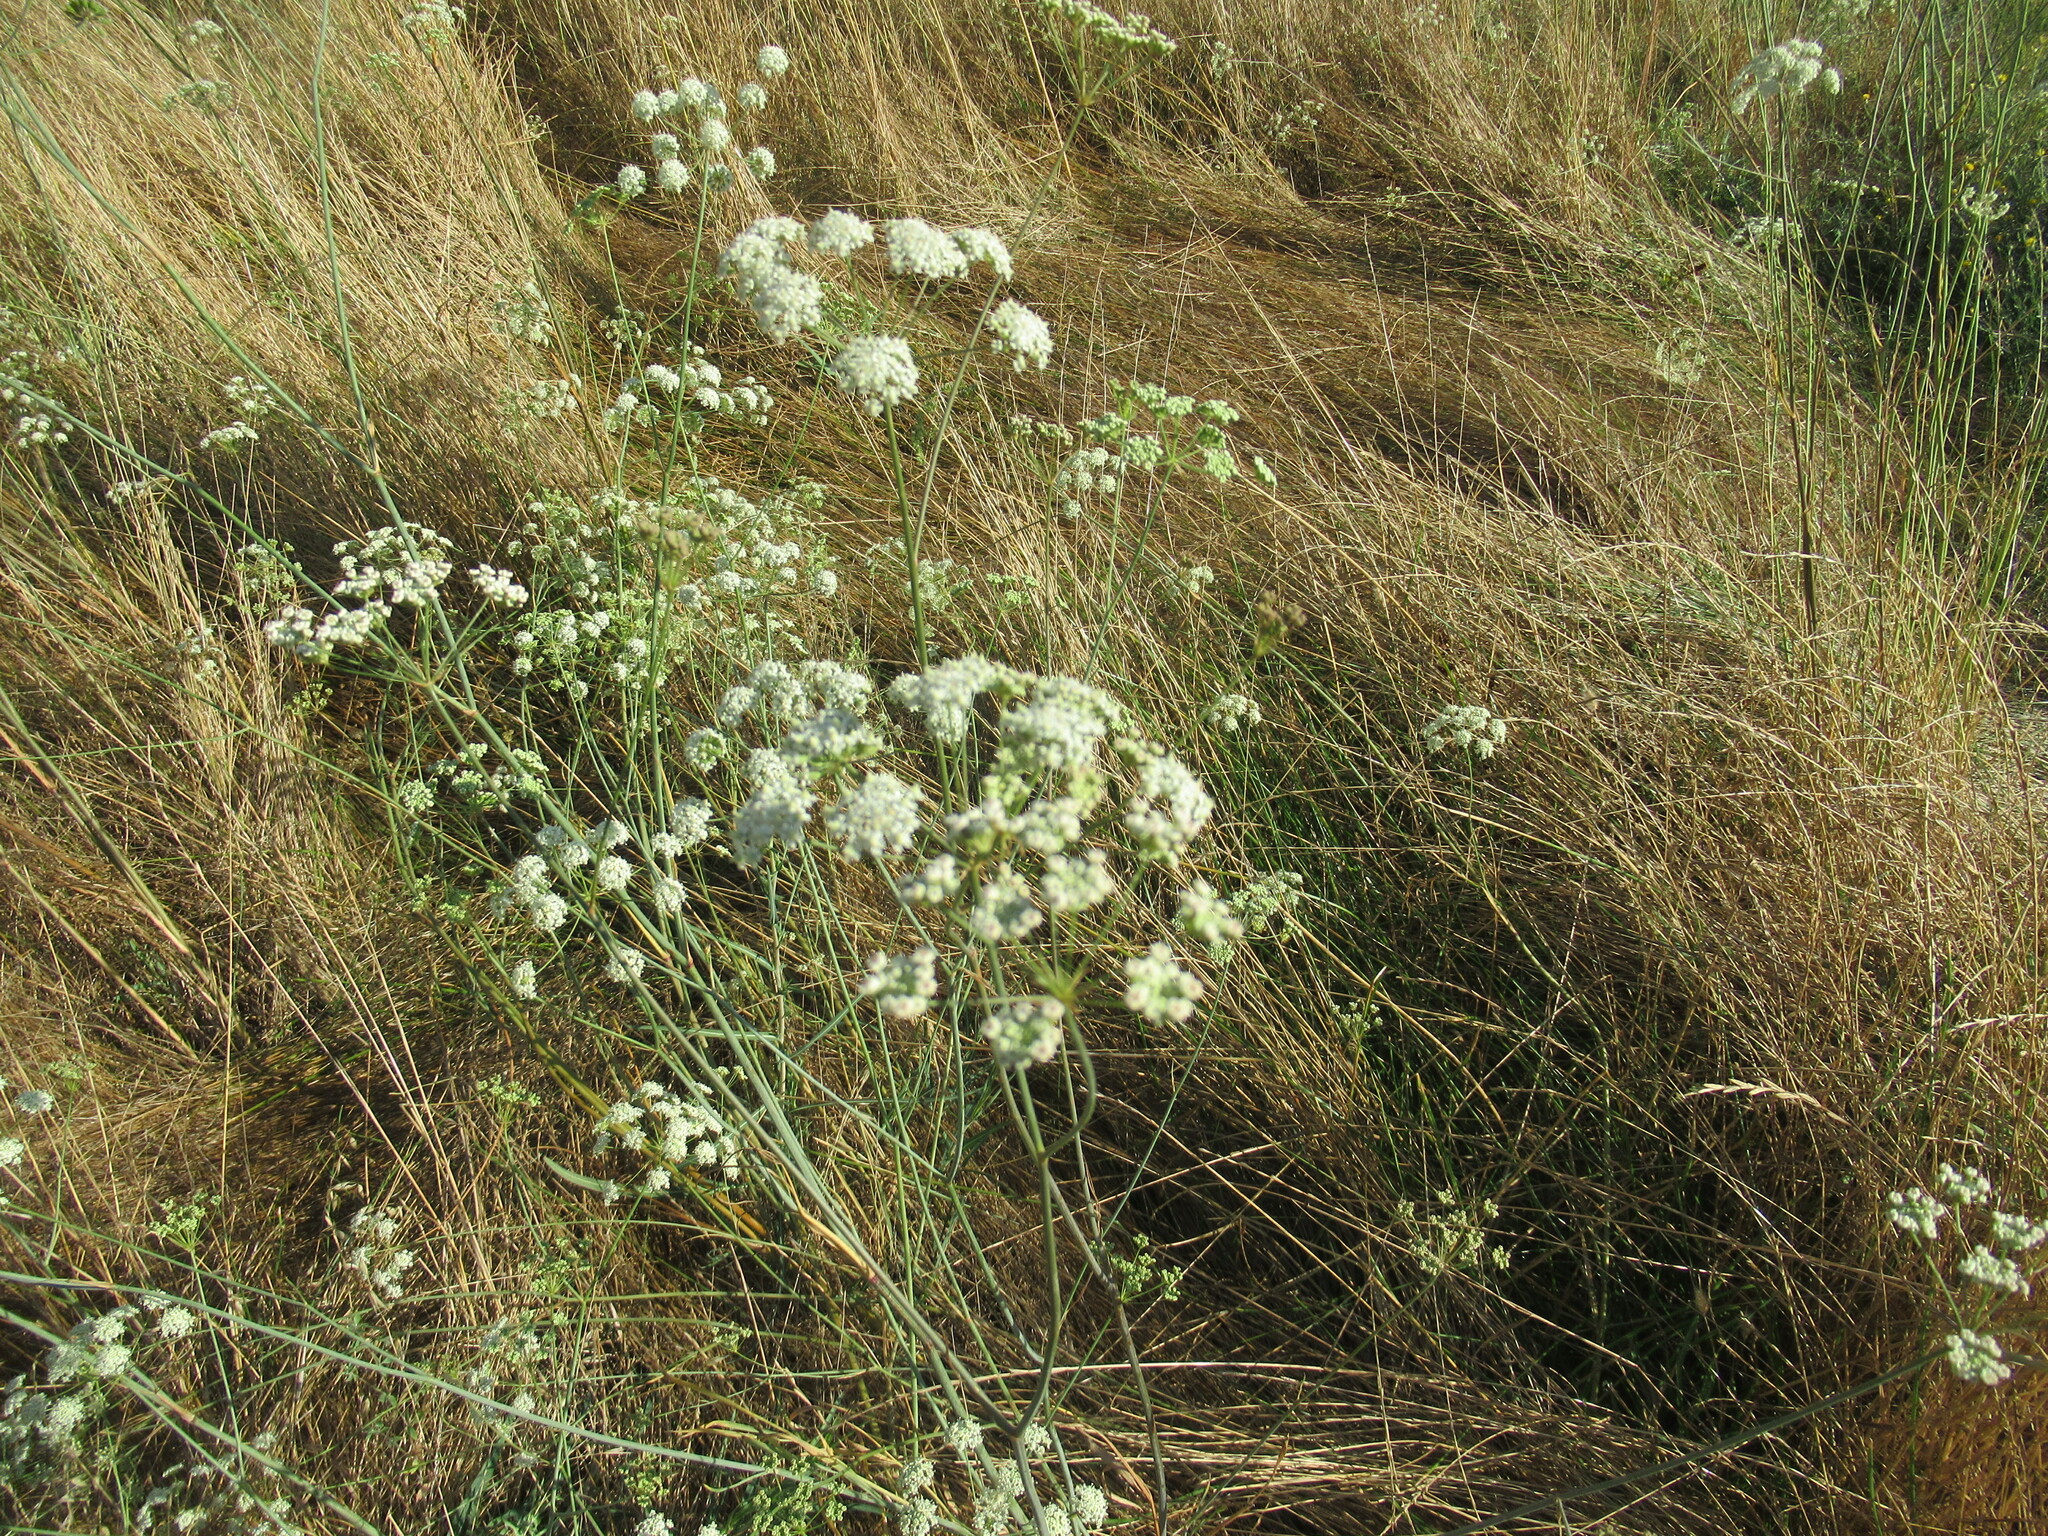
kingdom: Plantae
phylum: Tracheophyta
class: Magnoliopsida
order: Apiales
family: Apiaceae
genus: Perideridia
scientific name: Perideridia kelloggii
